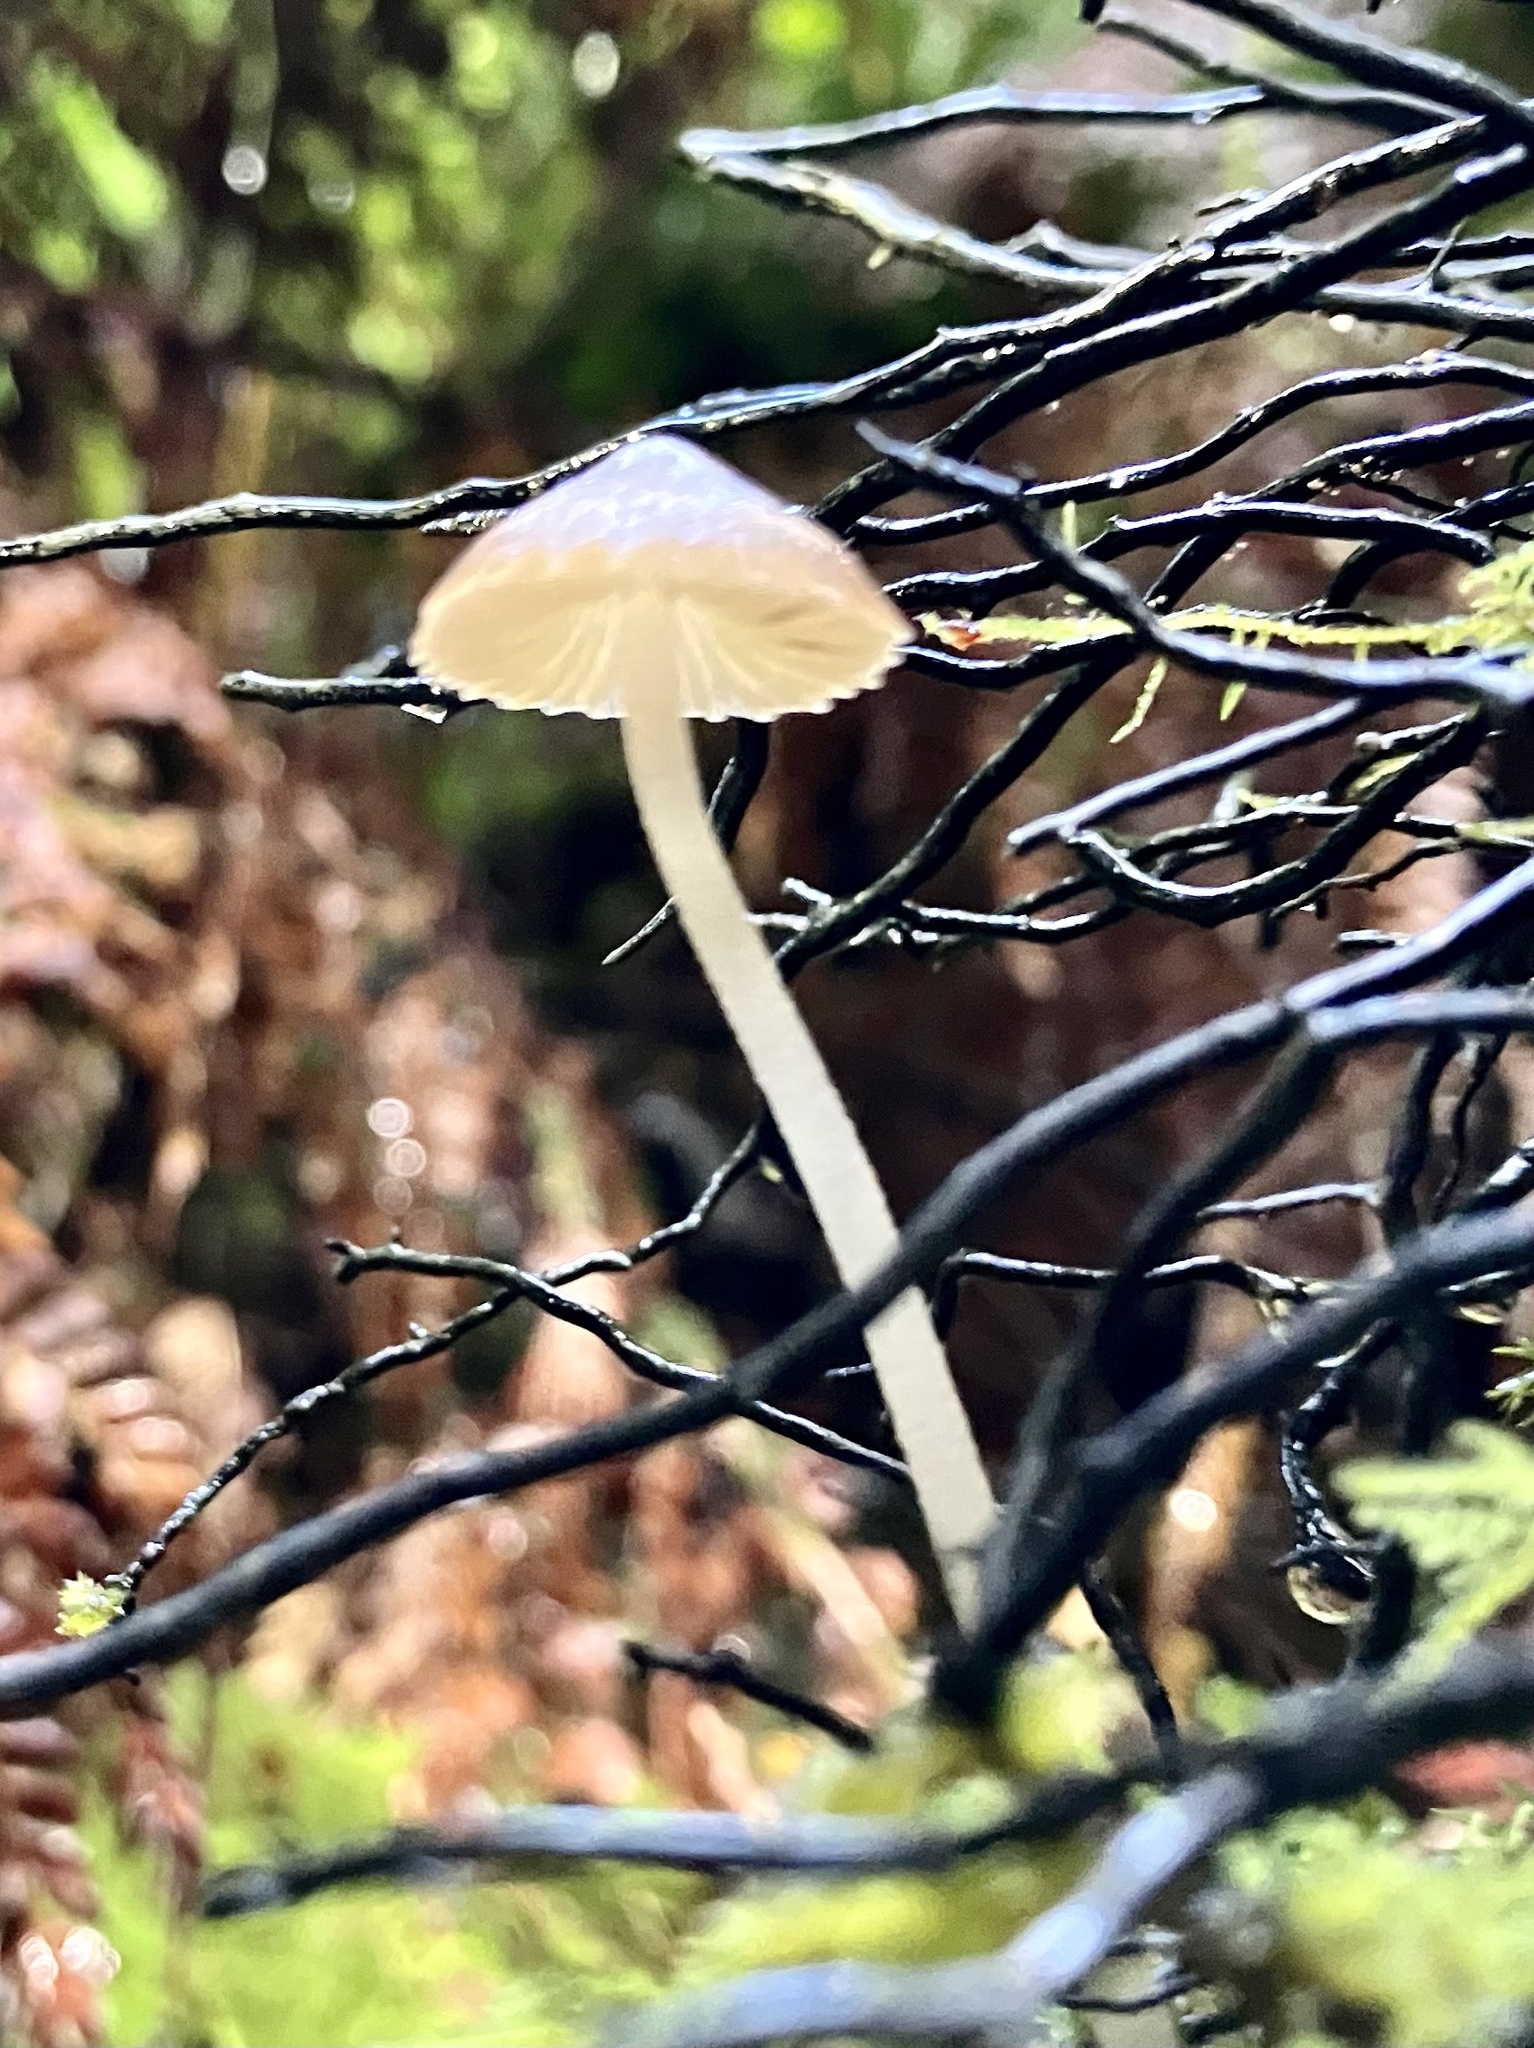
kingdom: Fungi
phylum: Basidiomycota
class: Agaricomycetes
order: Agaricales
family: Porotheleaceae
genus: Pseudohydropus
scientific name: Pseudohydropus parafunebris
